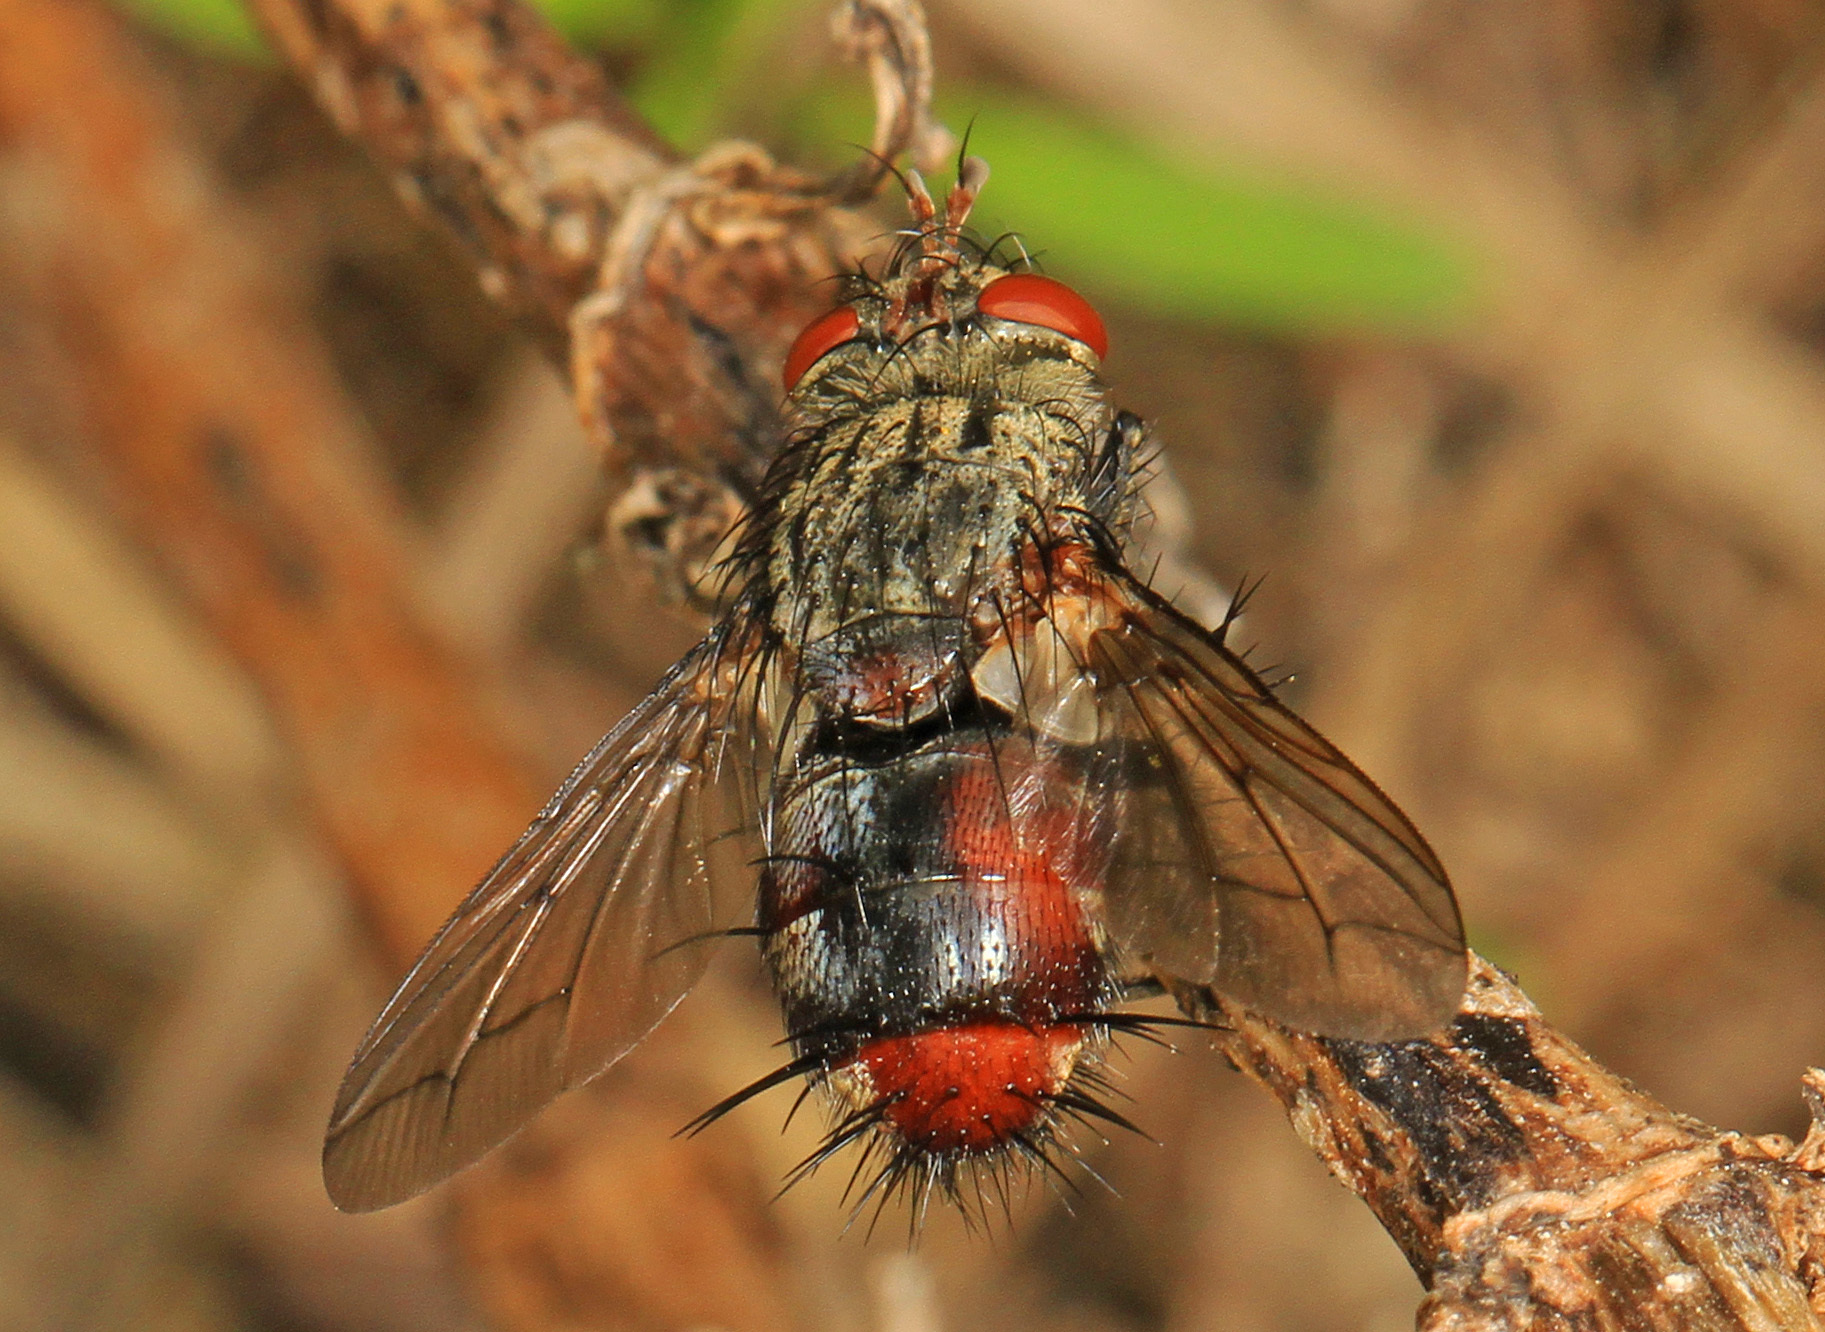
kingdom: Animalia
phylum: Arthropoda
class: Insecta
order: Diptera
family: Tachinidae
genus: Archytas
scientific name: Archytas rufiventris
